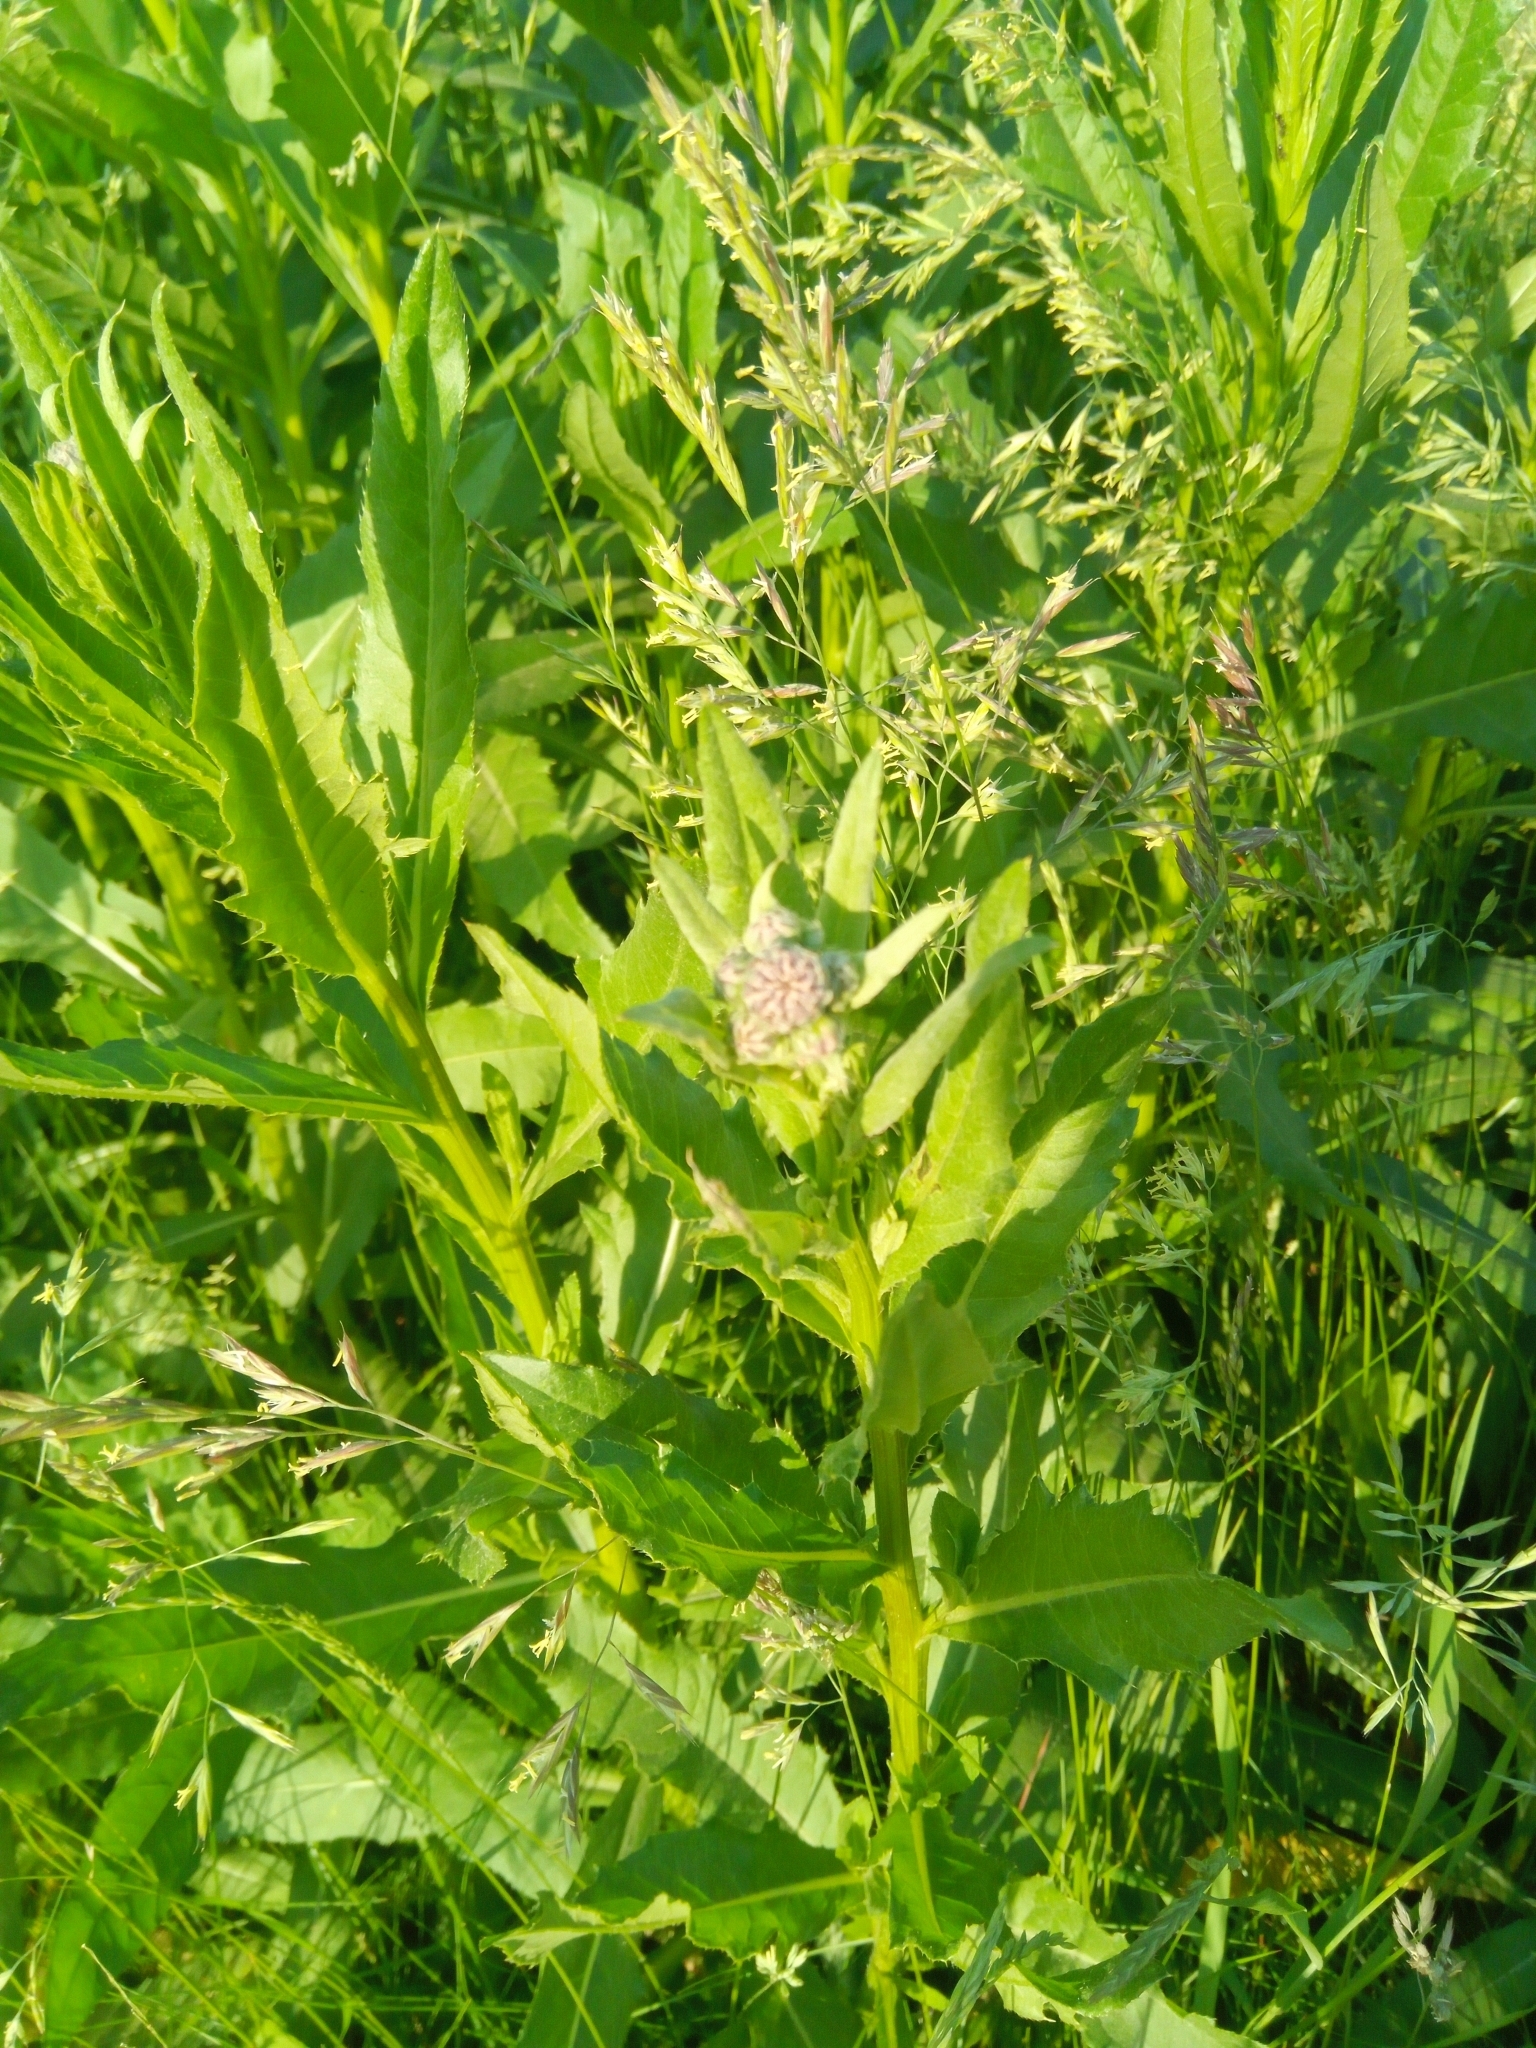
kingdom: Plantae
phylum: Tracheophyta
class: Magnoliopsida
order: Asterales
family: Asteraceae
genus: Cirsium
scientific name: Cirsium arvense
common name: Creeping thistle
